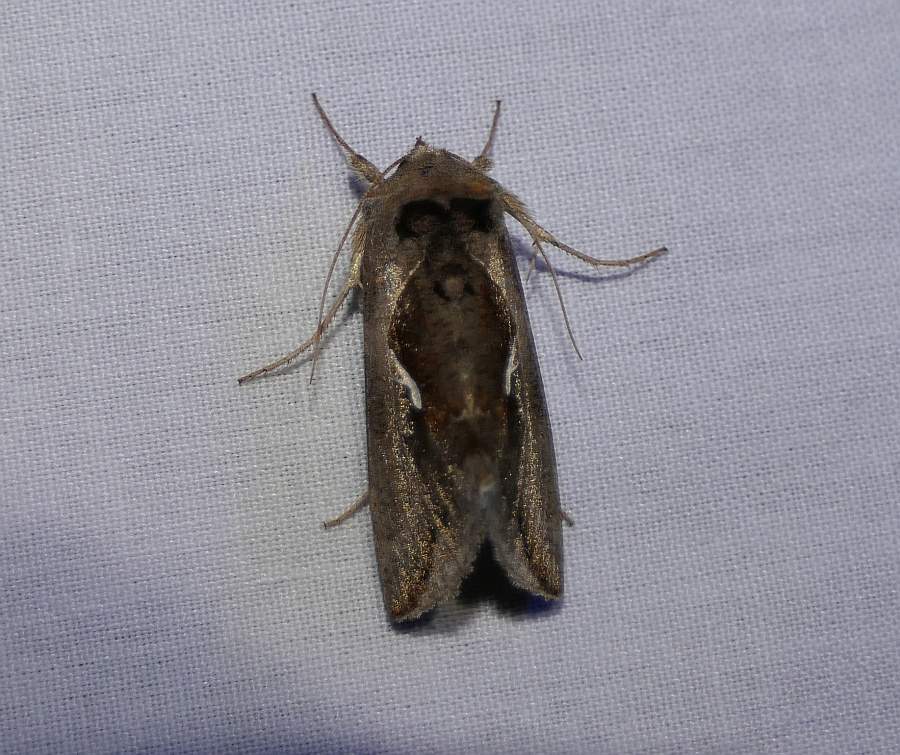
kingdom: Animalia
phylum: Arthropoda
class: Insecta
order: Lepidoptera
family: Noctuidae
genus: Anagrapha
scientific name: Anagrapha falcifera
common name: Celery looper
